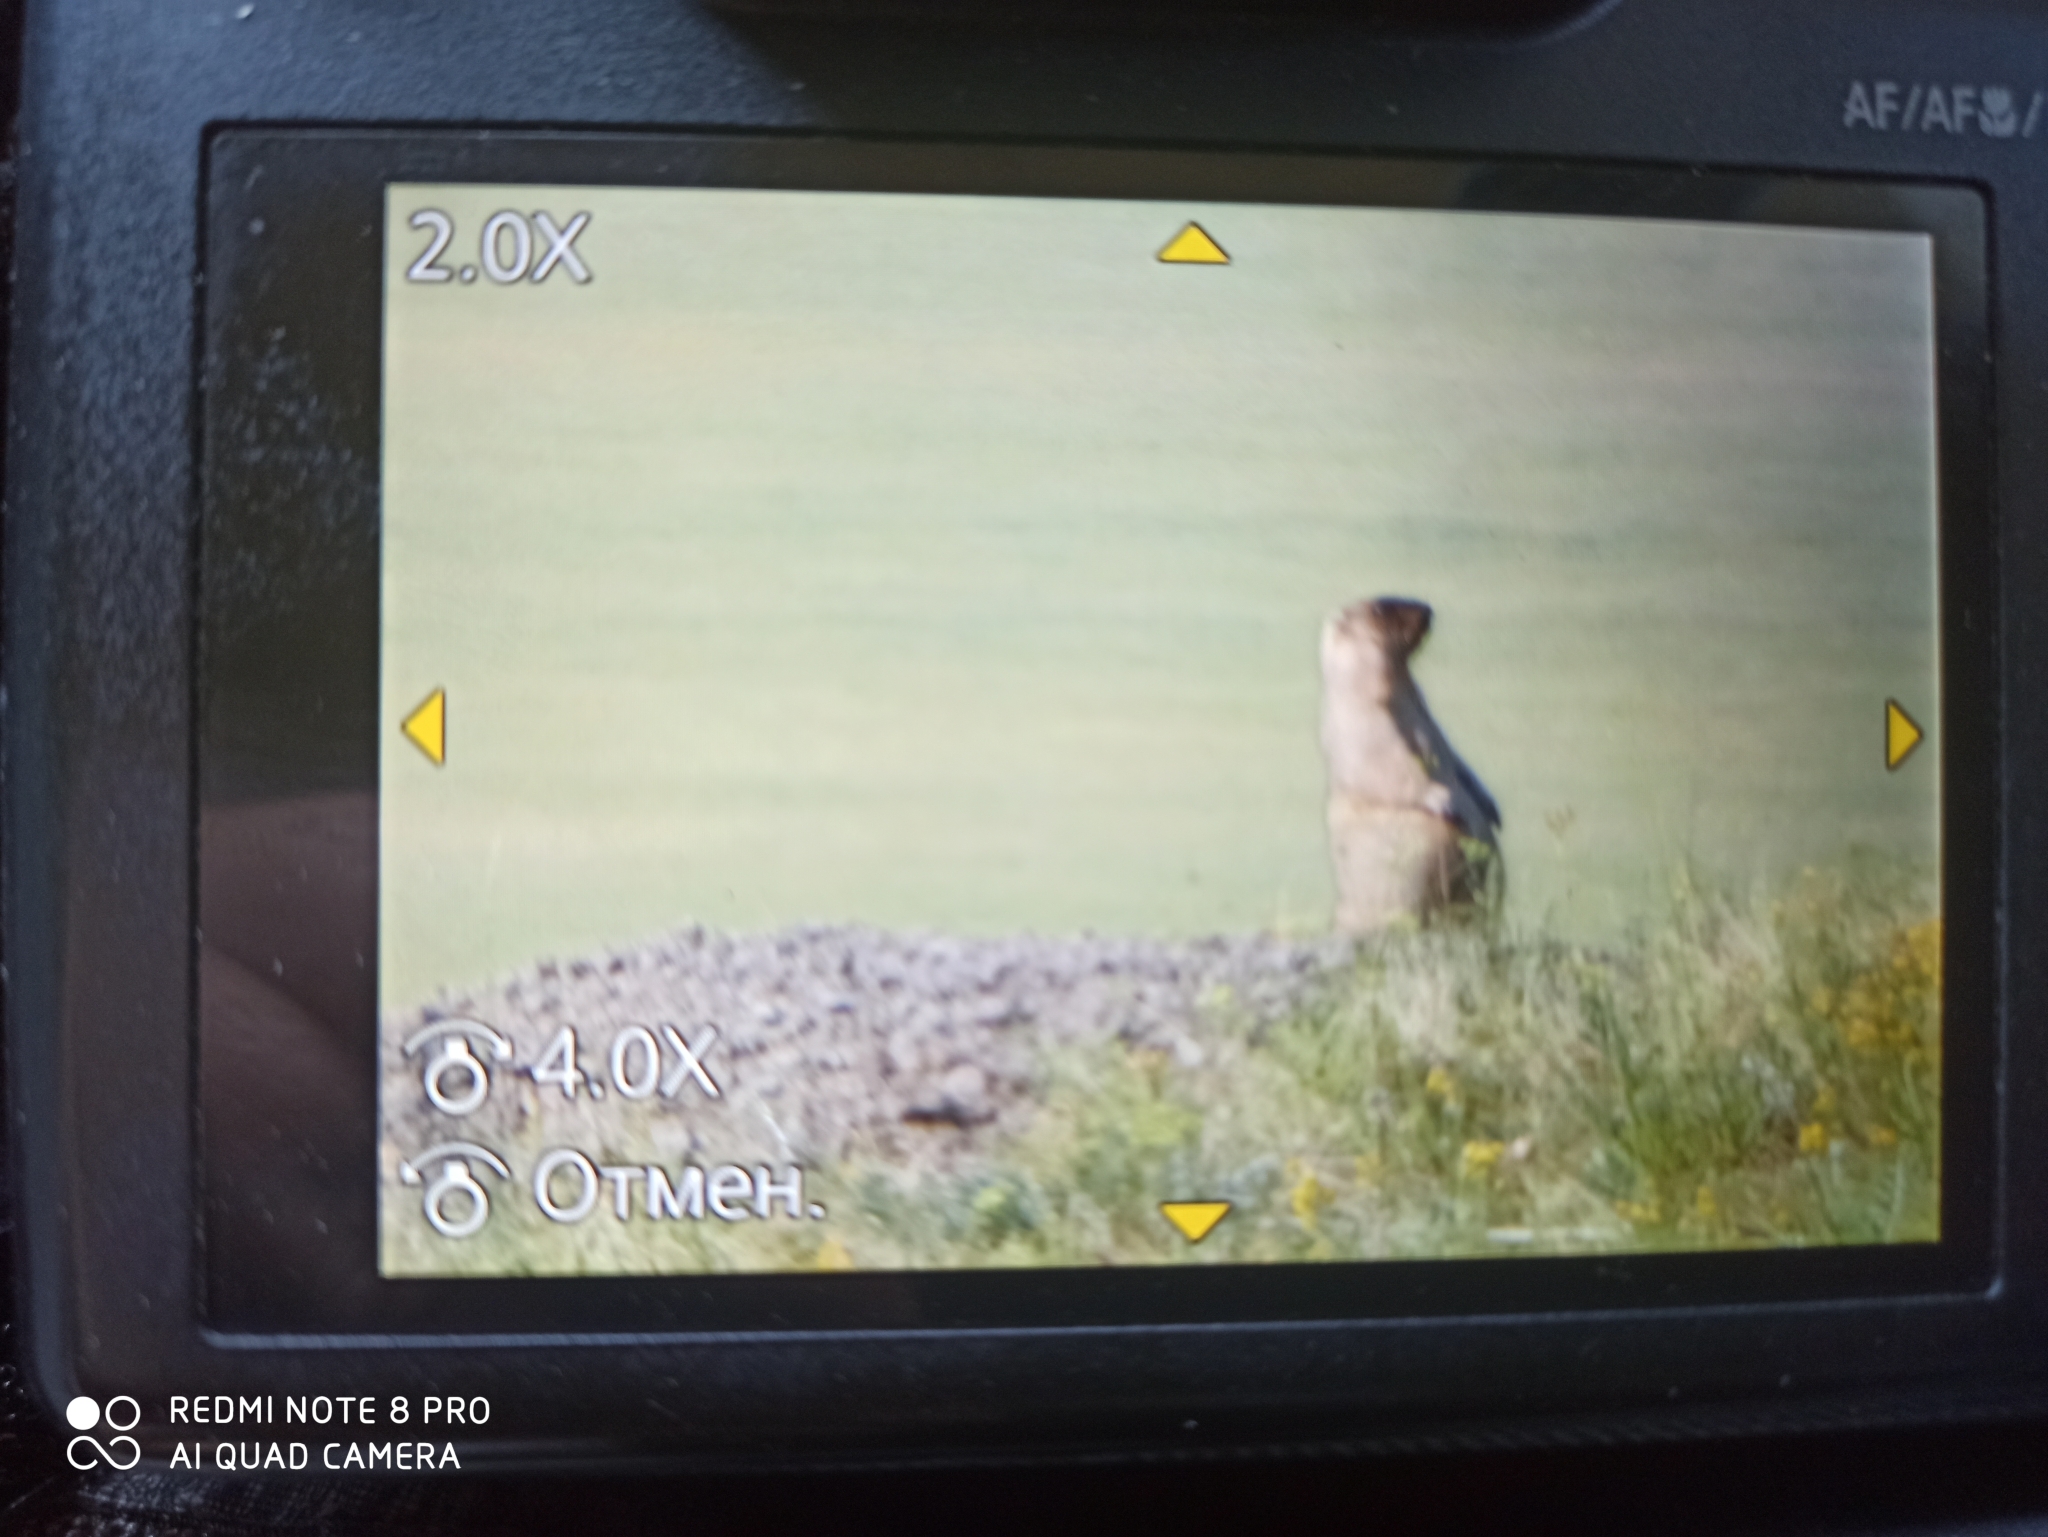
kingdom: Animalia
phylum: Chordata
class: Mammalia
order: Rodentia
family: Sciuridae
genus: Marmota
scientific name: Marmota bobak
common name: Bobak marmot
